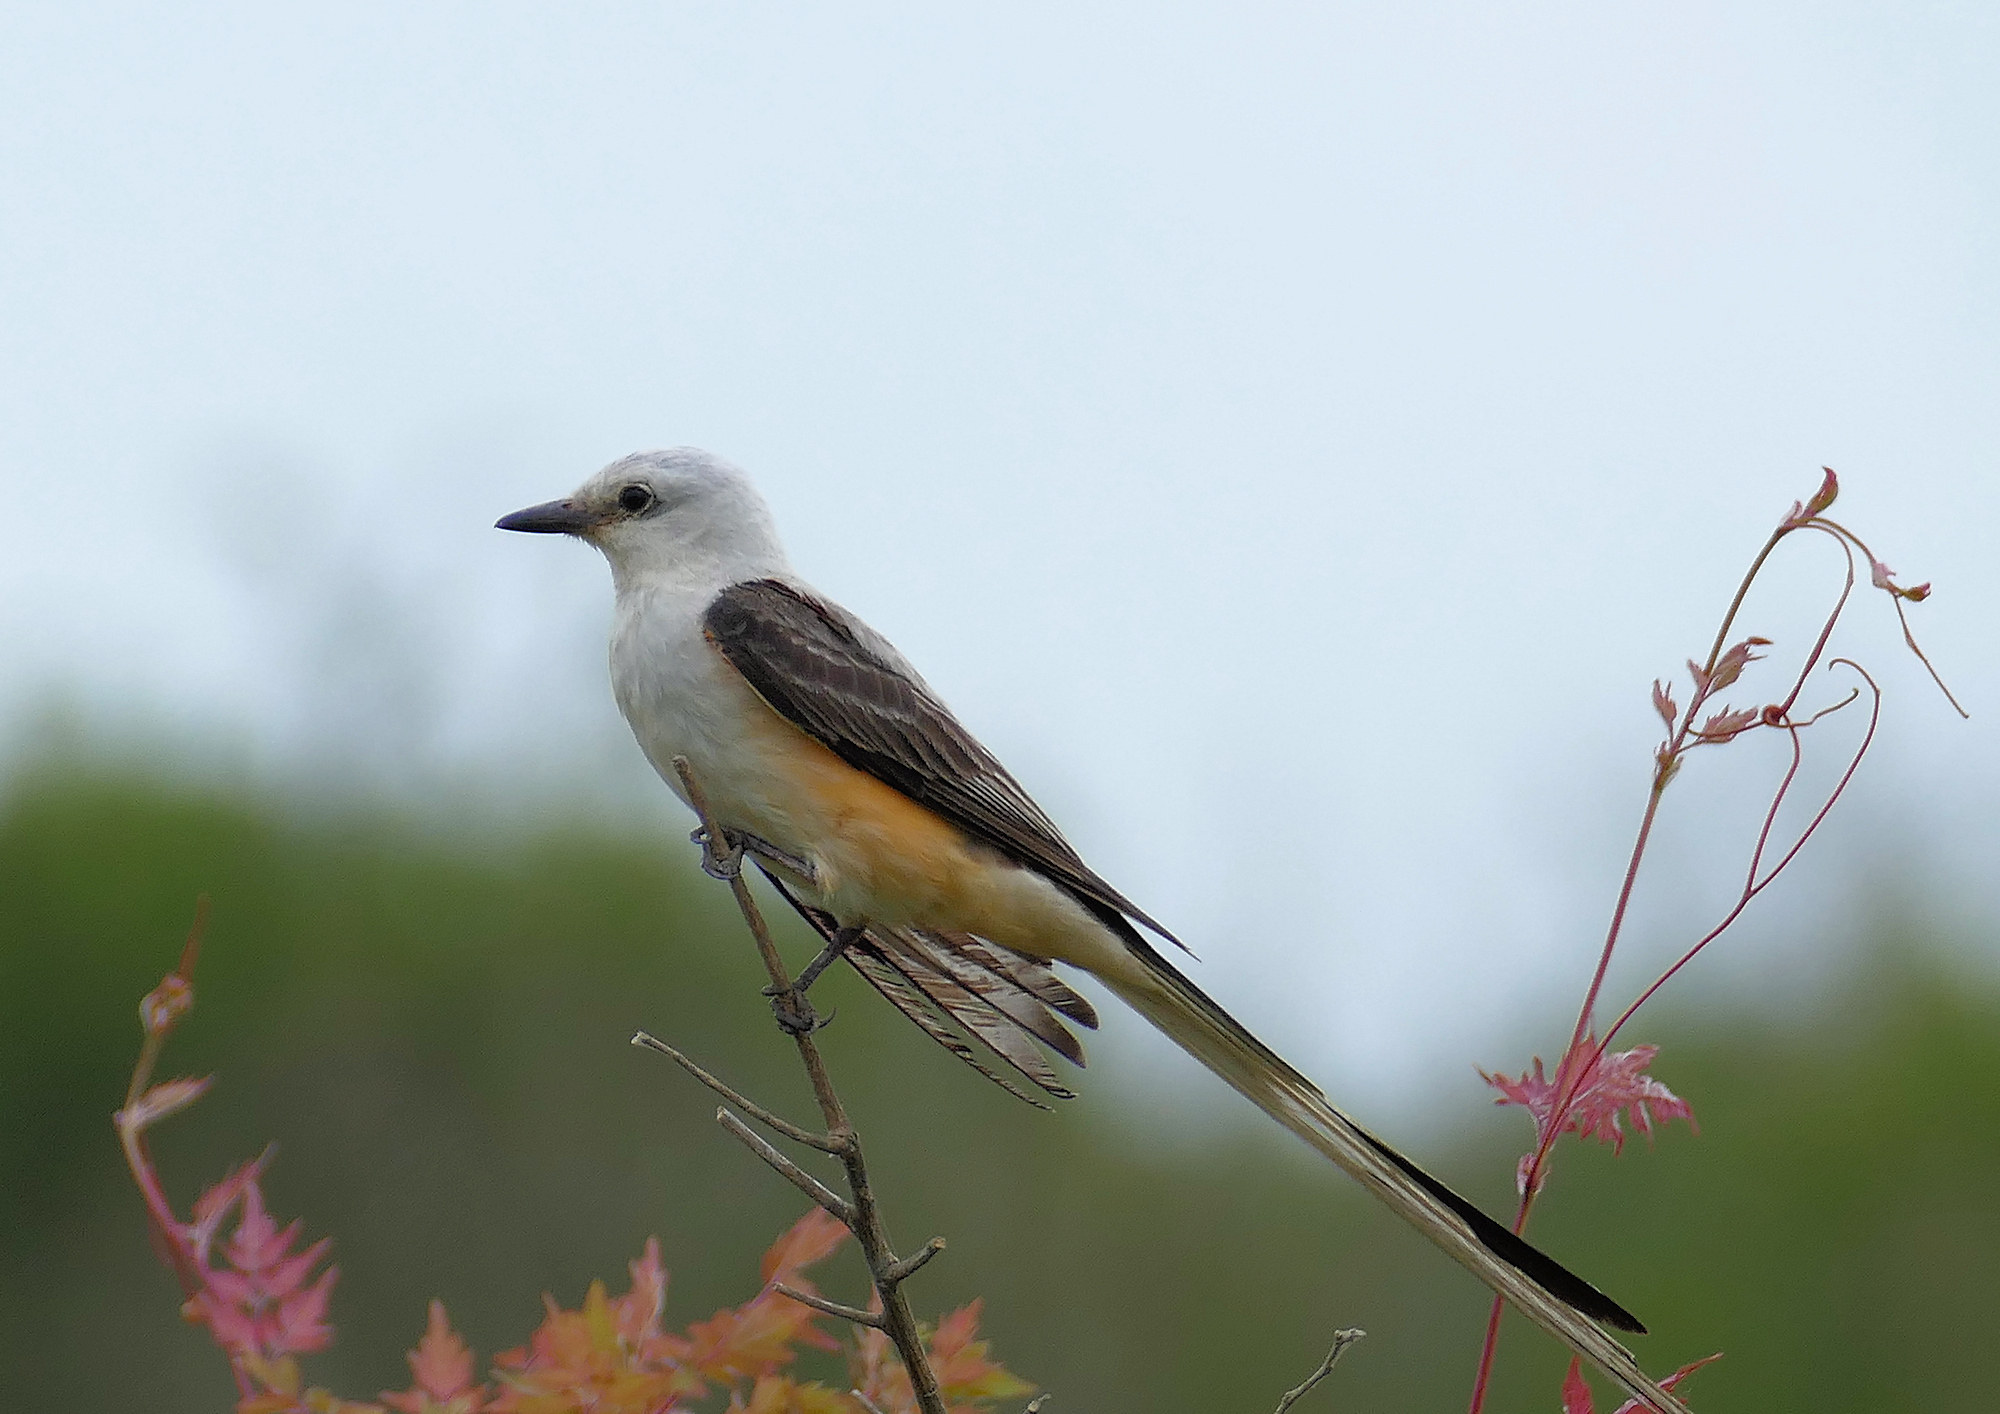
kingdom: Animalia
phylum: Chordata
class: Aves
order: Passeriformes
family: Tyrannidae
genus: Tyrannus
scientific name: Tyrannus forficatus
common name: Scissor-tailed flycatcher
